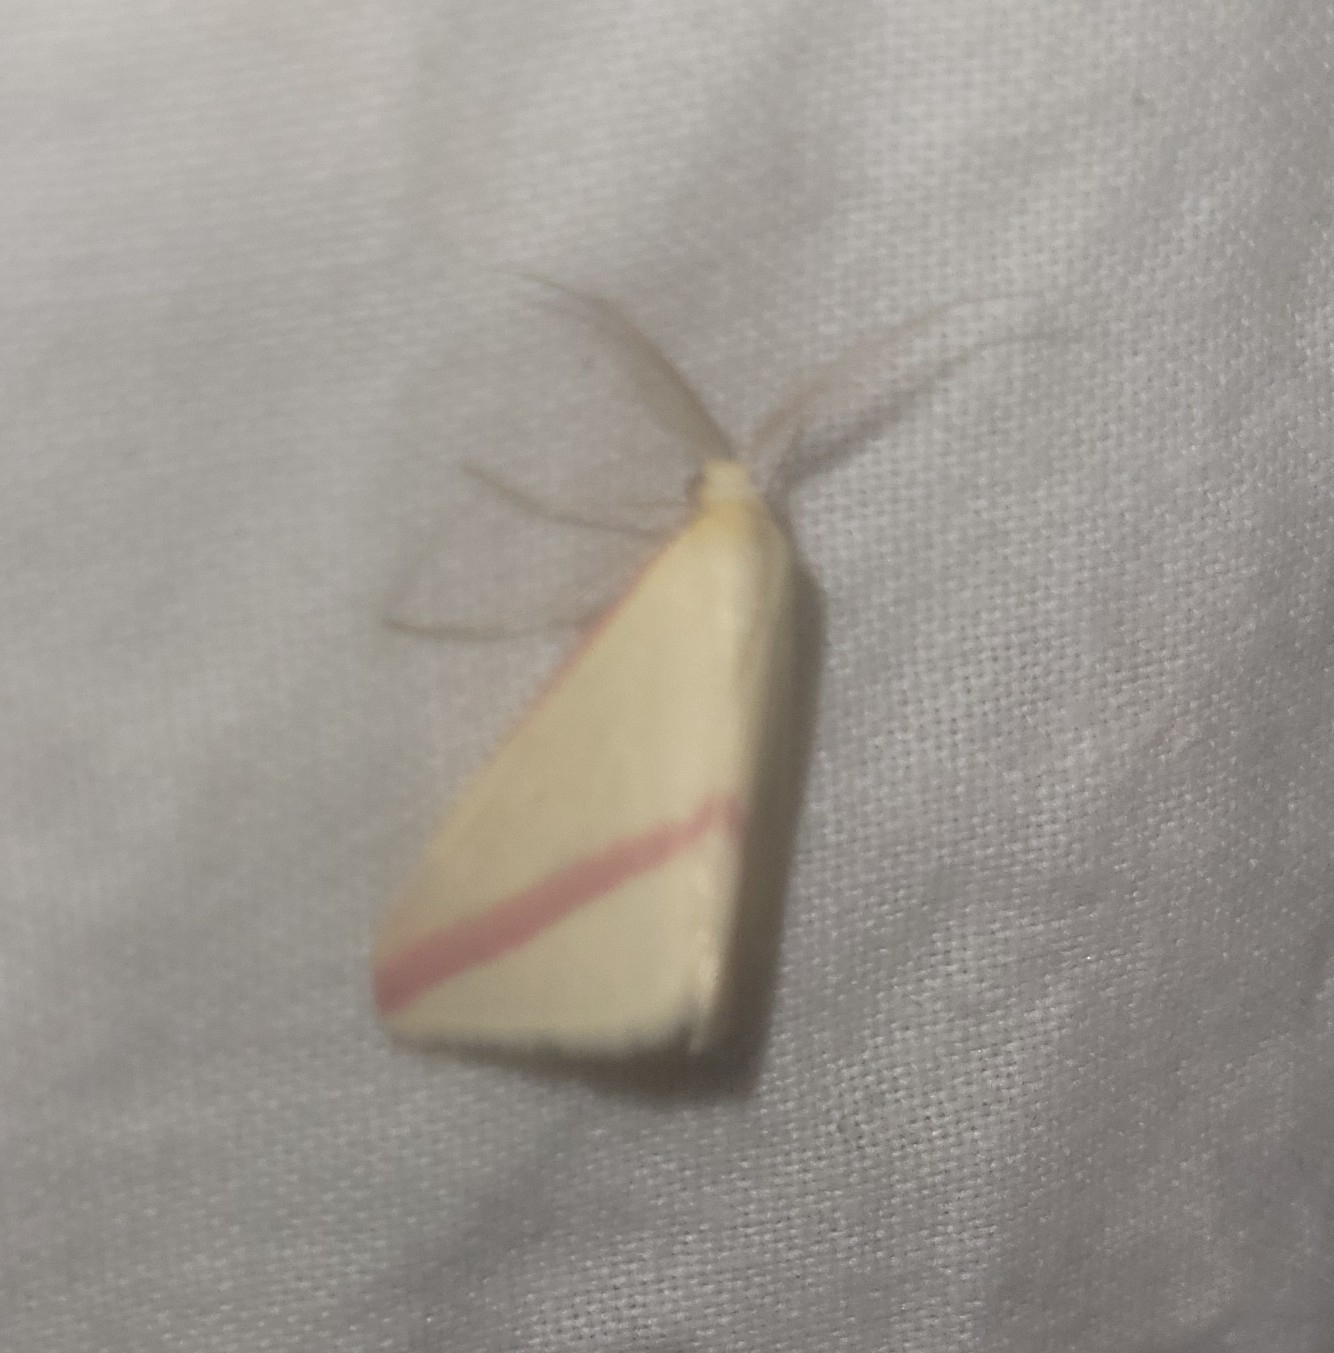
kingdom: Animalia
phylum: Arthropoda
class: Insecta
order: Lepidoptera
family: Geometridae
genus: Rhodometra
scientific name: Rhodometra sacraria
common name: Vestal
